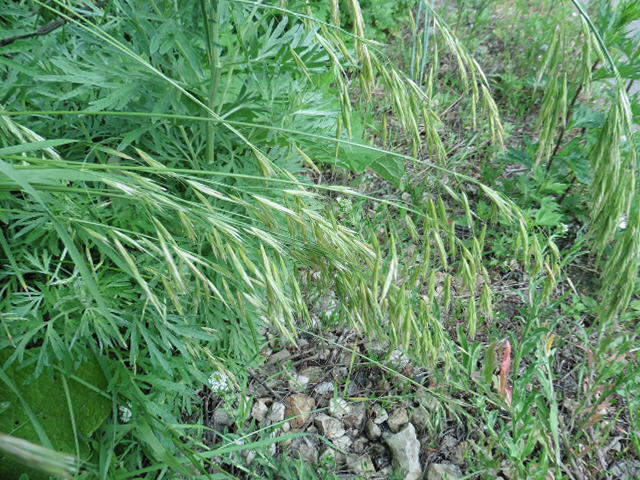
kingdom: Plantae
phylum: Tracheophyta
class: Liliopsida
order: Poales
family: Poaceae
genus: Bromus
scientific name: Bromus inermis
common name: Smooth brome
